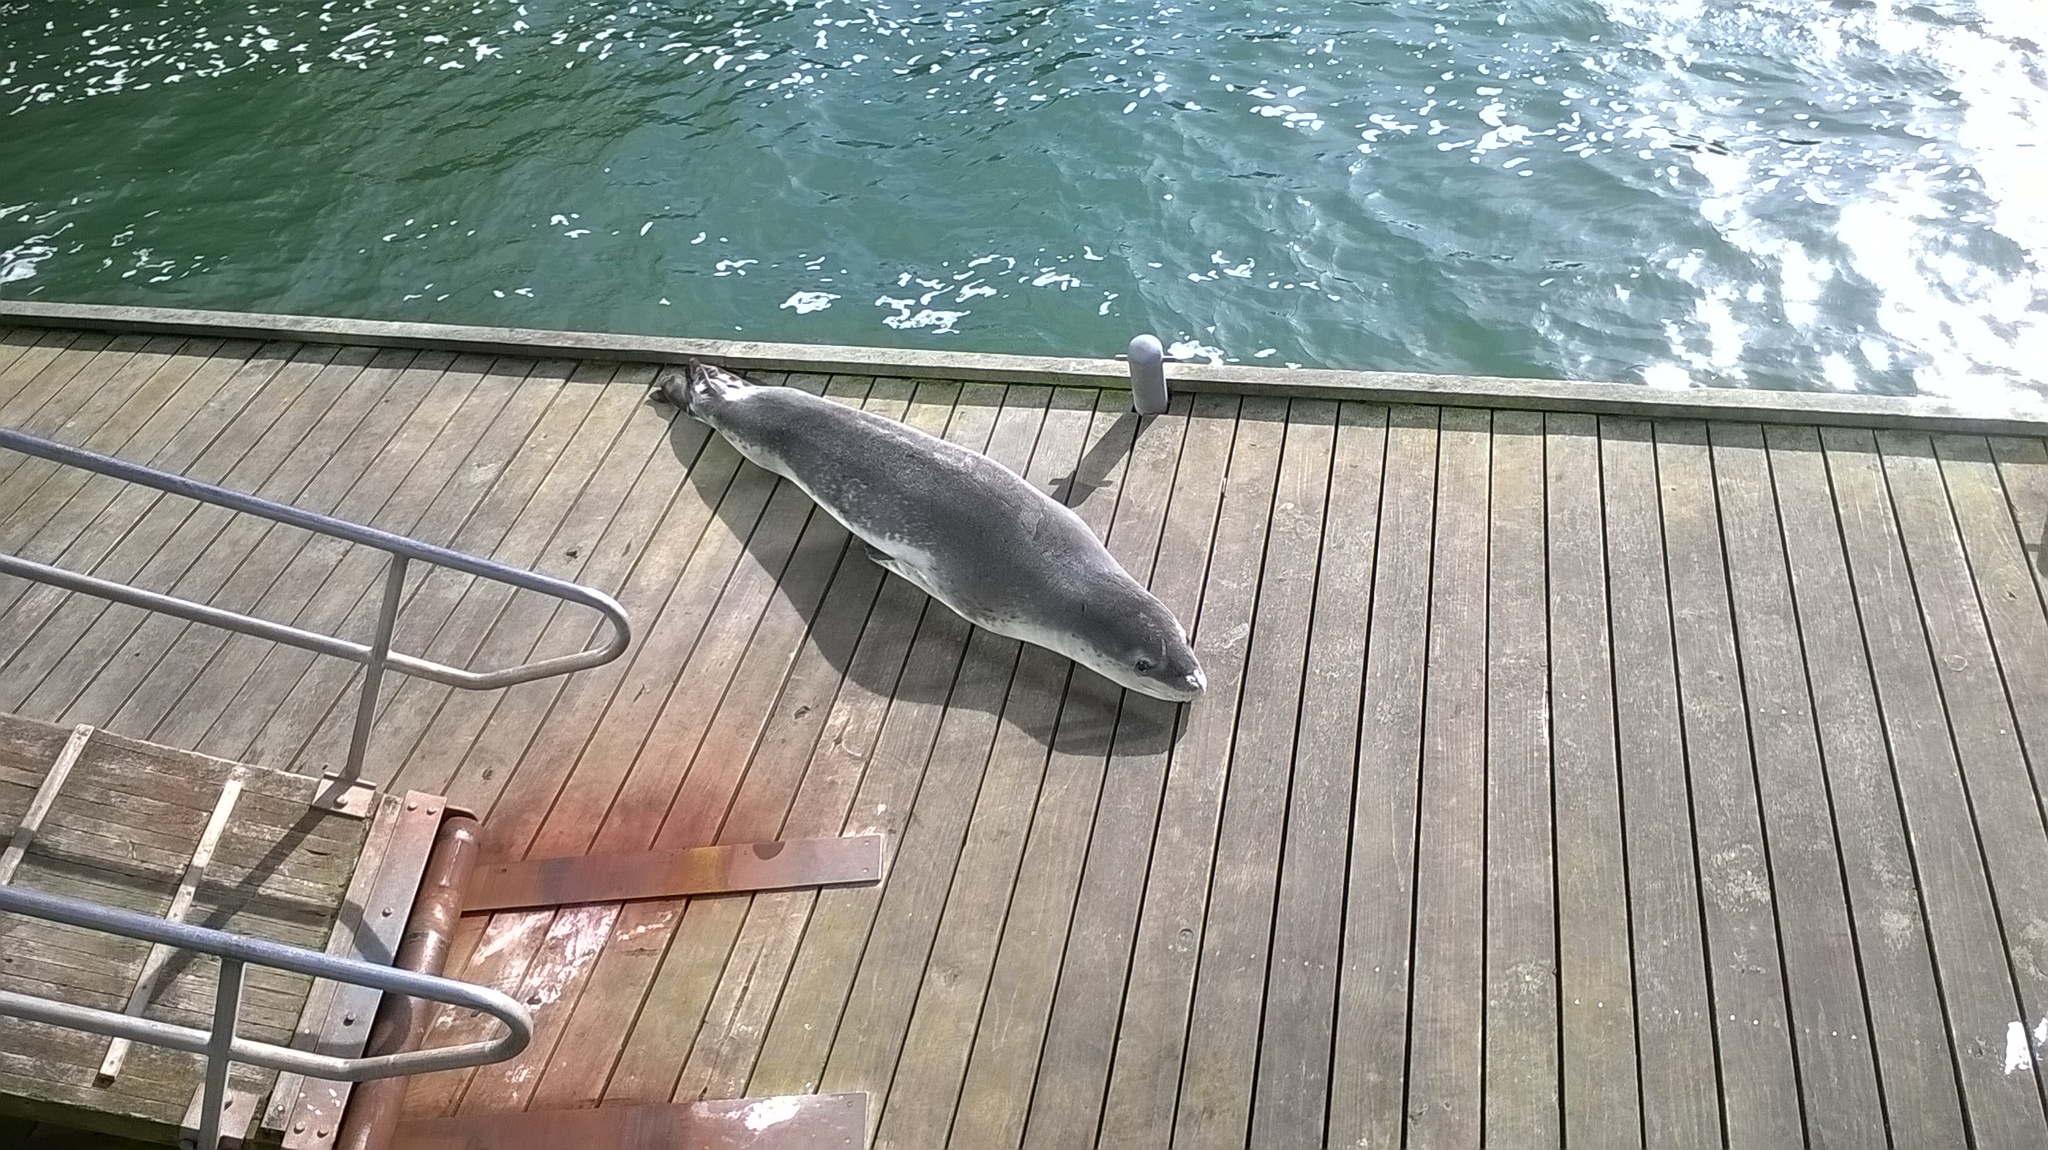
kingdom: Animalia
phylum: Chordata
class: Mammalia
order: Carnivora
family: Phocidae
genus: Hydrurga
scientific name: Hydrurga leptonyx
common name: Leopard seal
